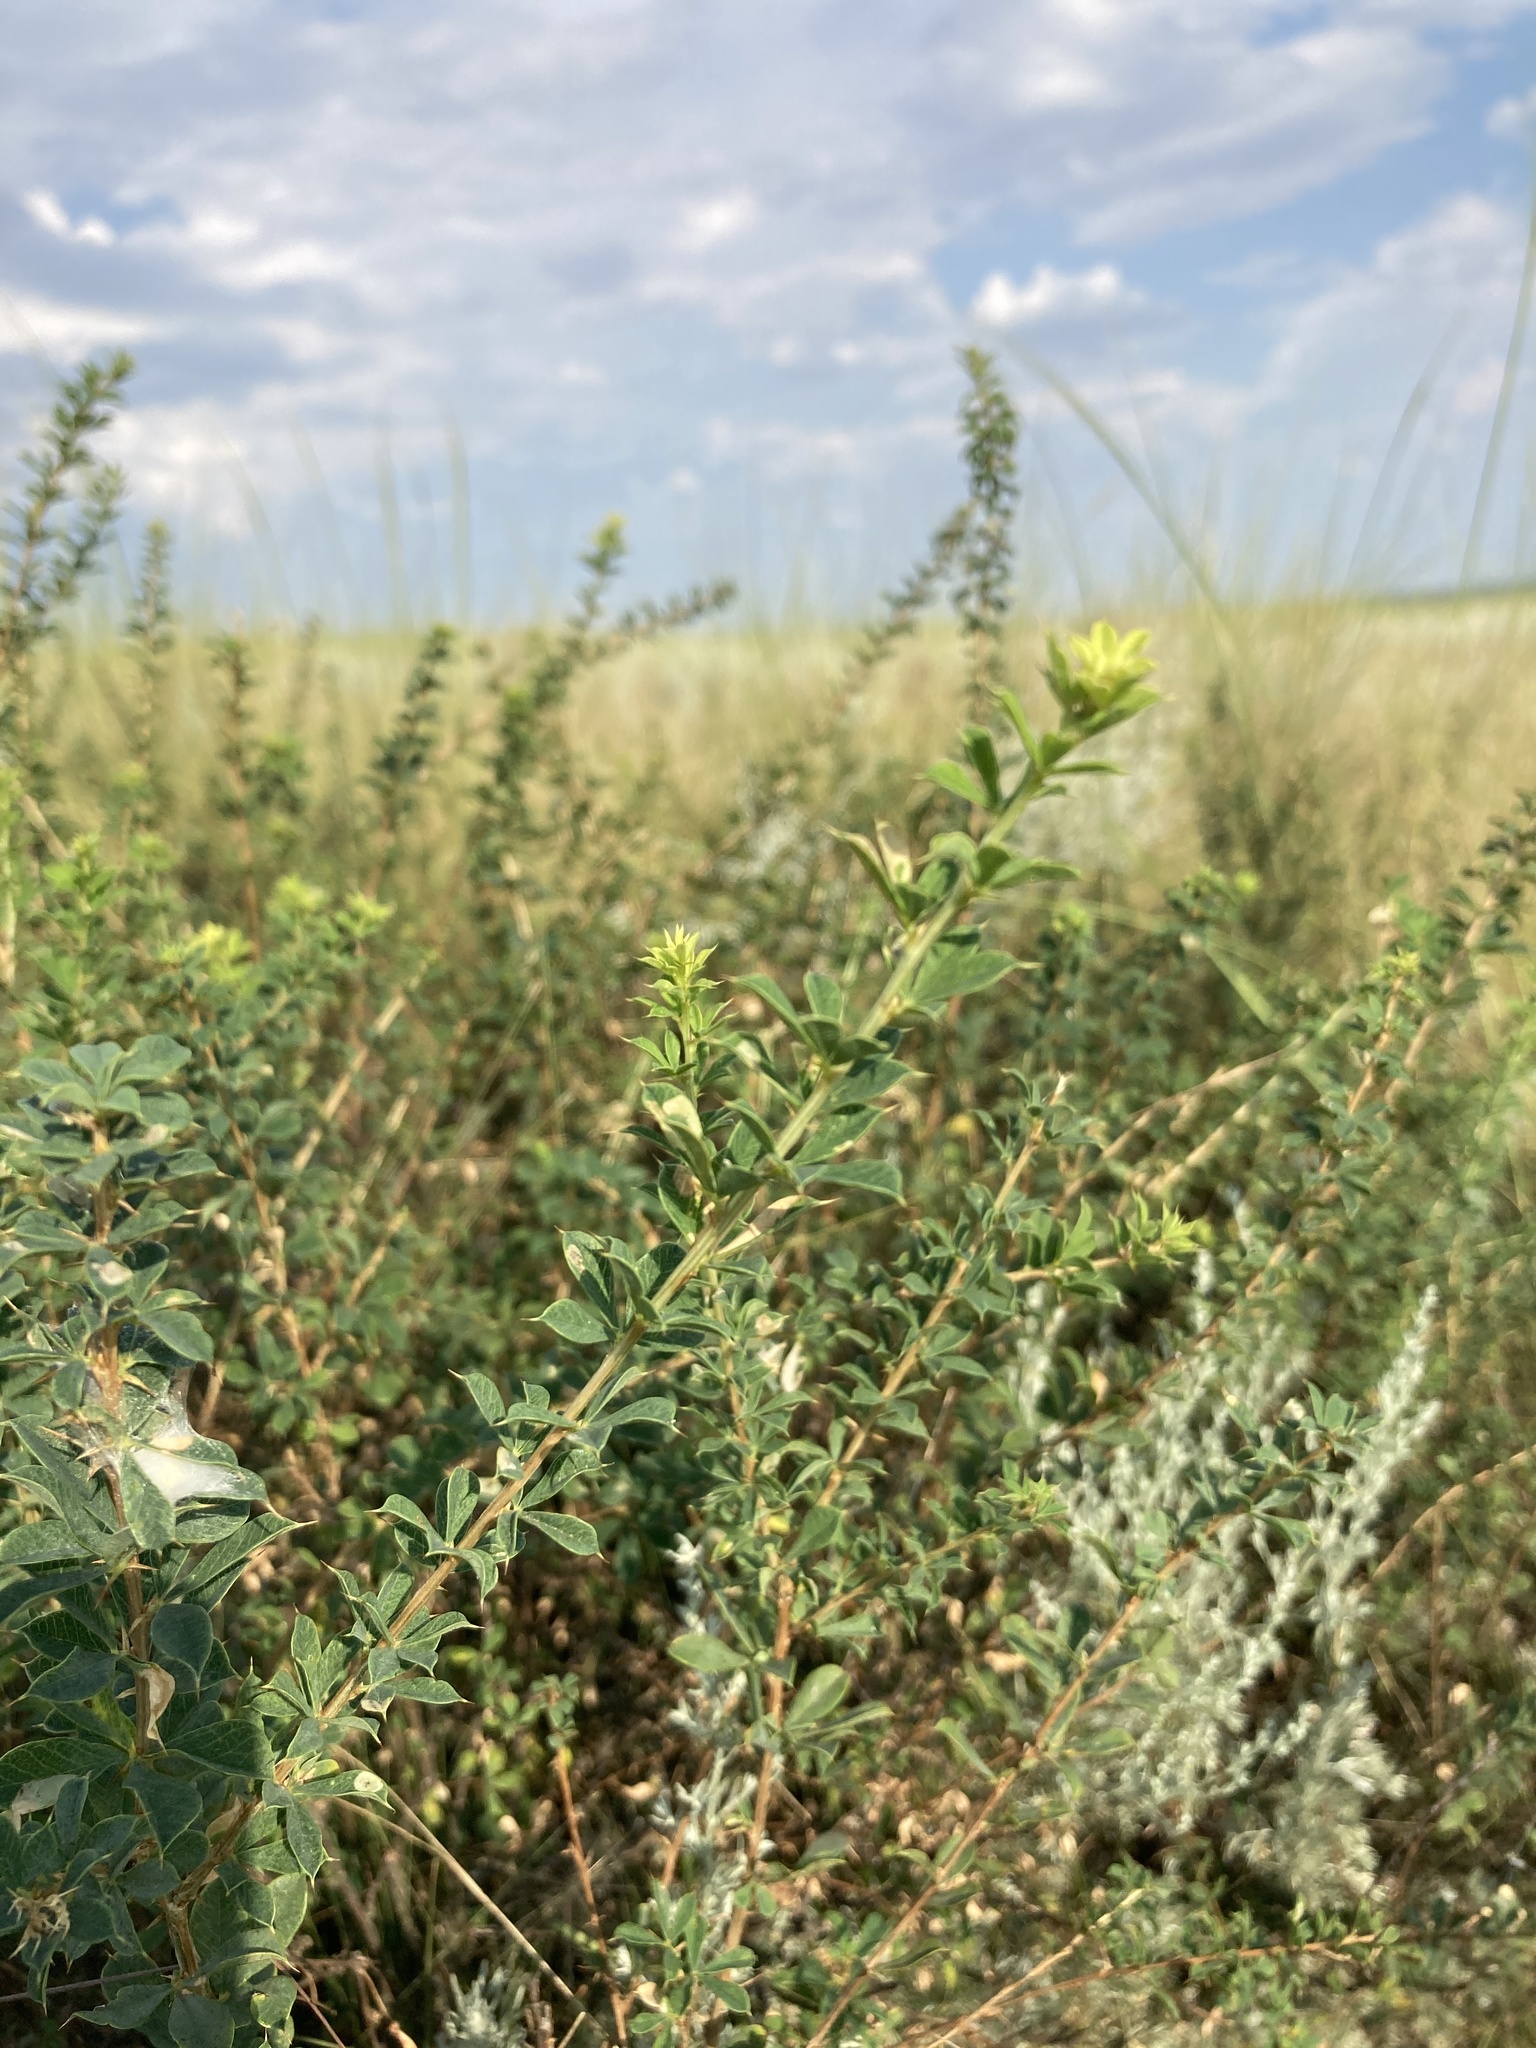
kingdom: Plantae
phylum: Tracheophyta
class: Magnoliopsida
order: Fabales
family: Fabaceae
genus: Caragana
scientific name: Caragana frutex
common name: Russian peashrub
